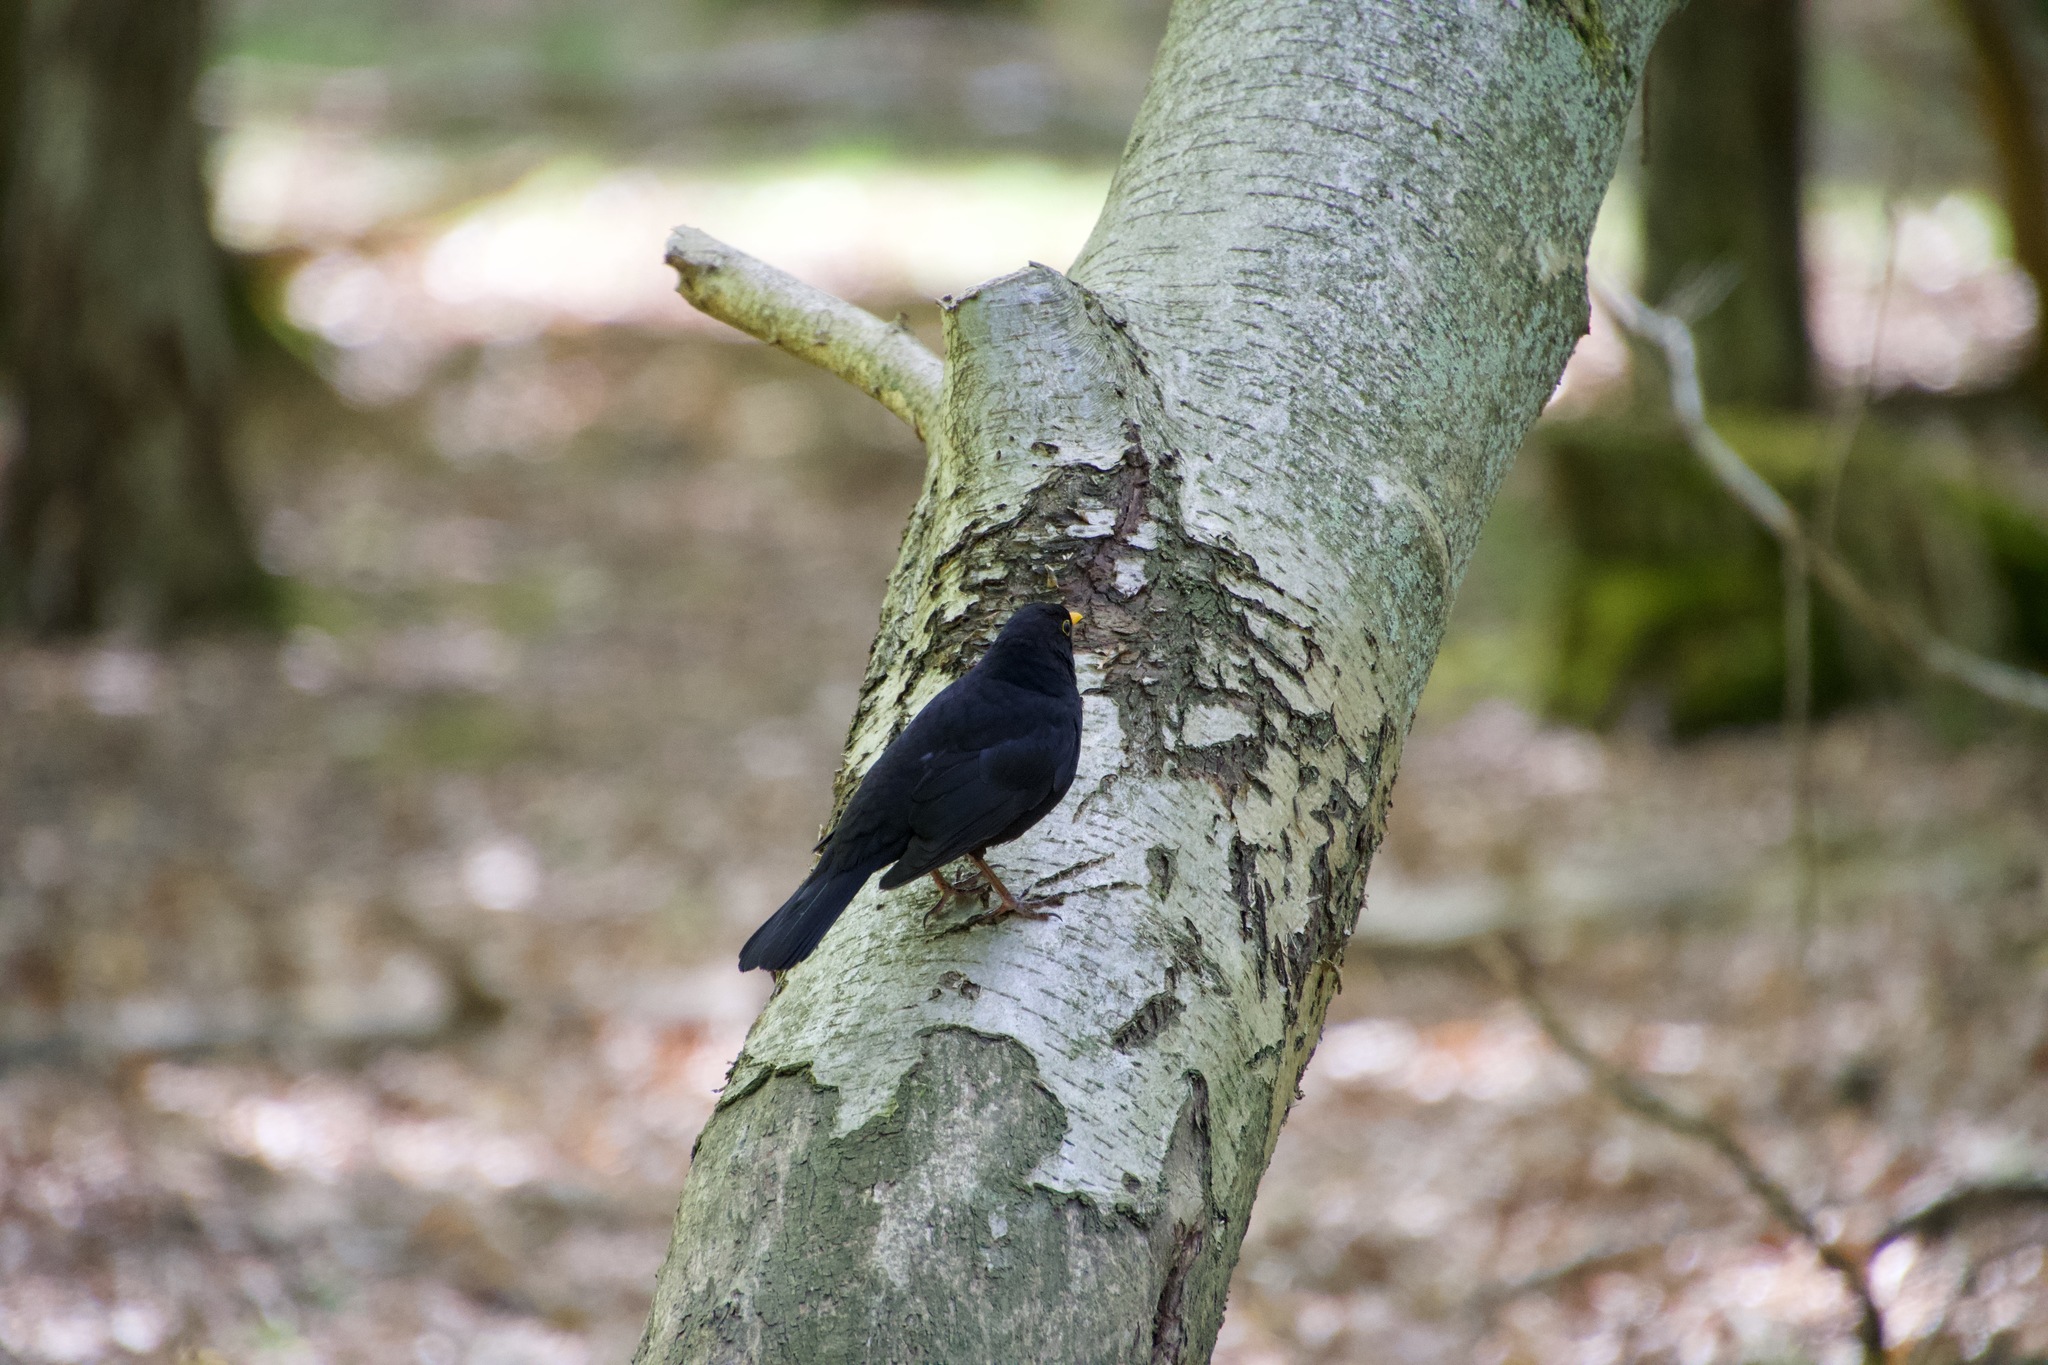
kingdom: Animalia
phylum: Chordata
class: Aves
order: Passeriformes
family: Turdidae
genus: Turdus
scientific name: Turdus merula
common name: Common blackbird
